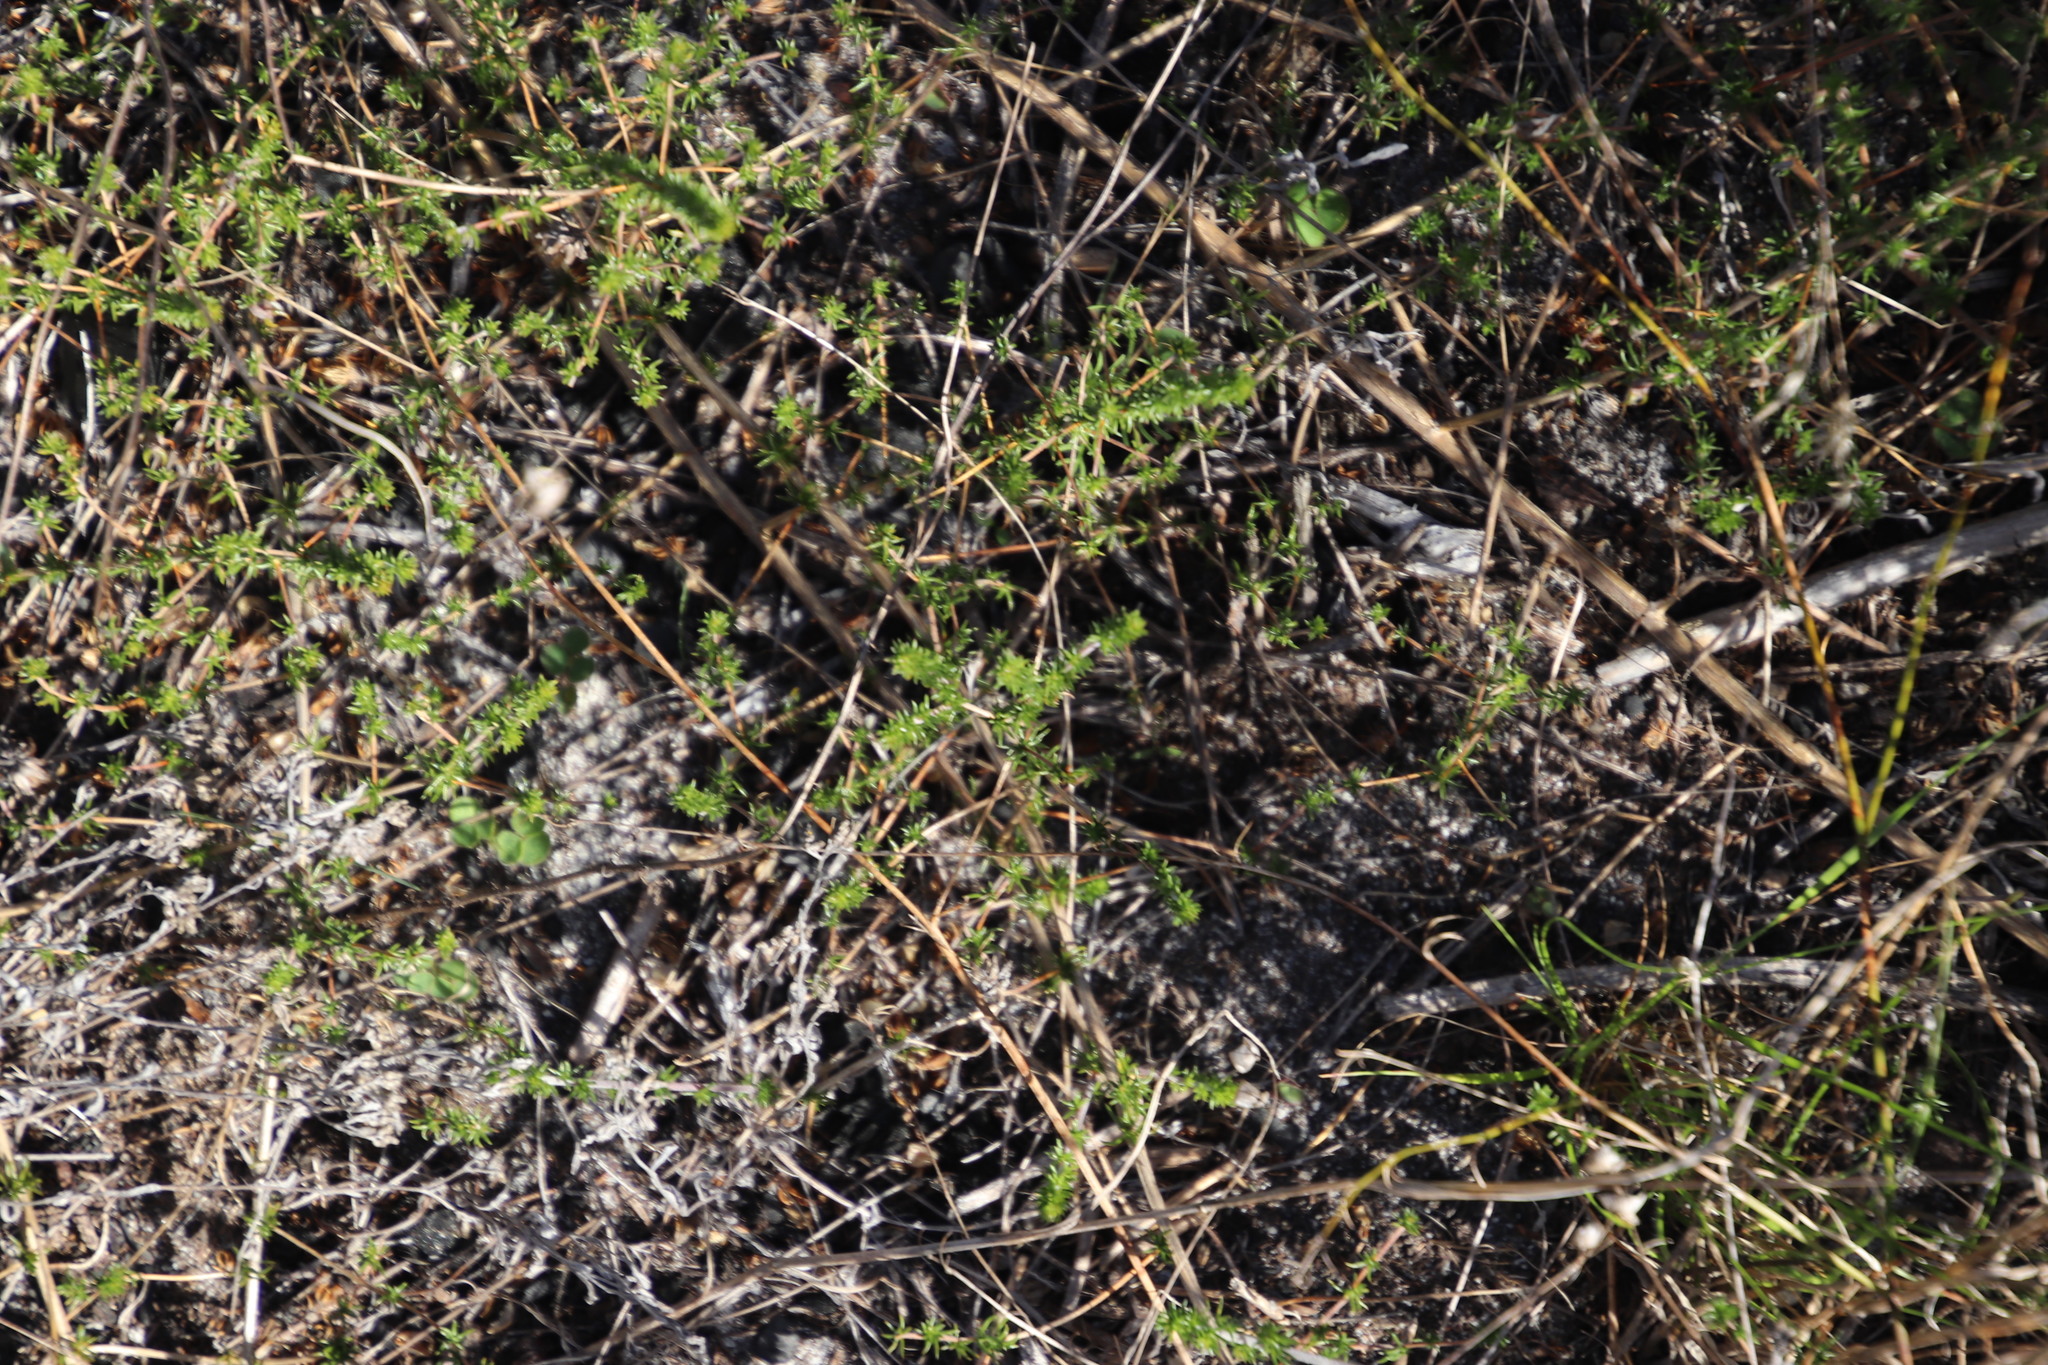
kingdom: Plantae
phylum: Tracheophyta
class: Magnoliopsida
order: Fabales
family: Fabaceae
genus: Aspalathus
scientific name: Aspalathus retroflexa
